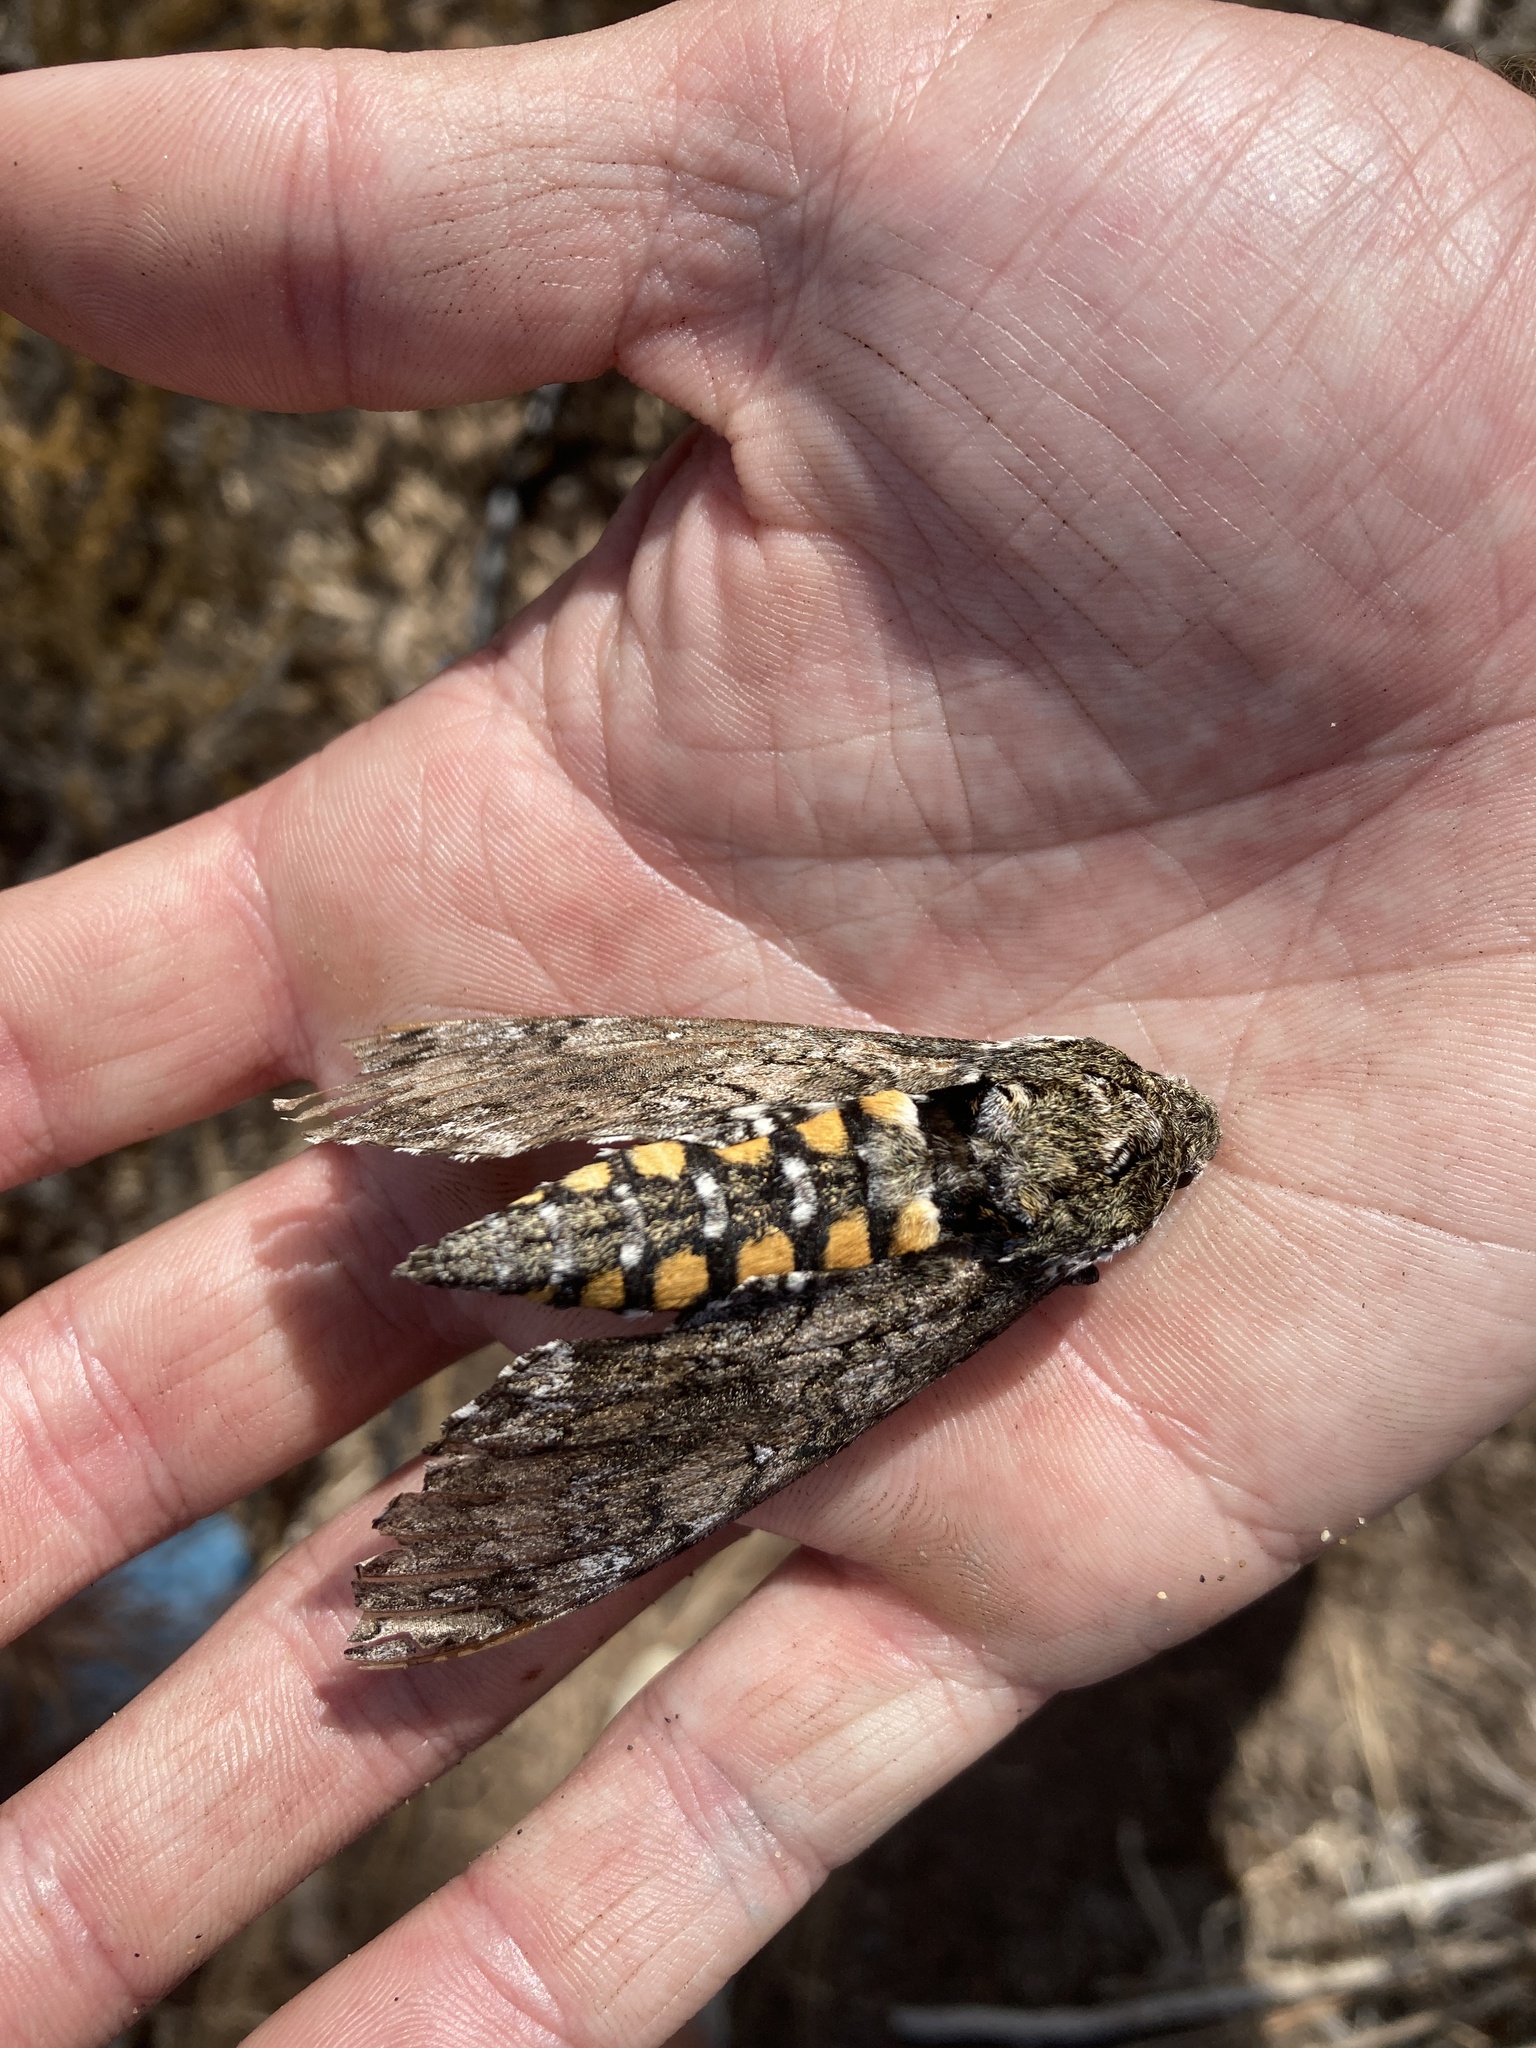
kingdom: Animalia
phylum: Arthropoda
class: Insecta
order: Lepidoptera
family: Sphingidae
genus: Manduca
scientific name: Manduca sexta
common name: Carolina sphinx
